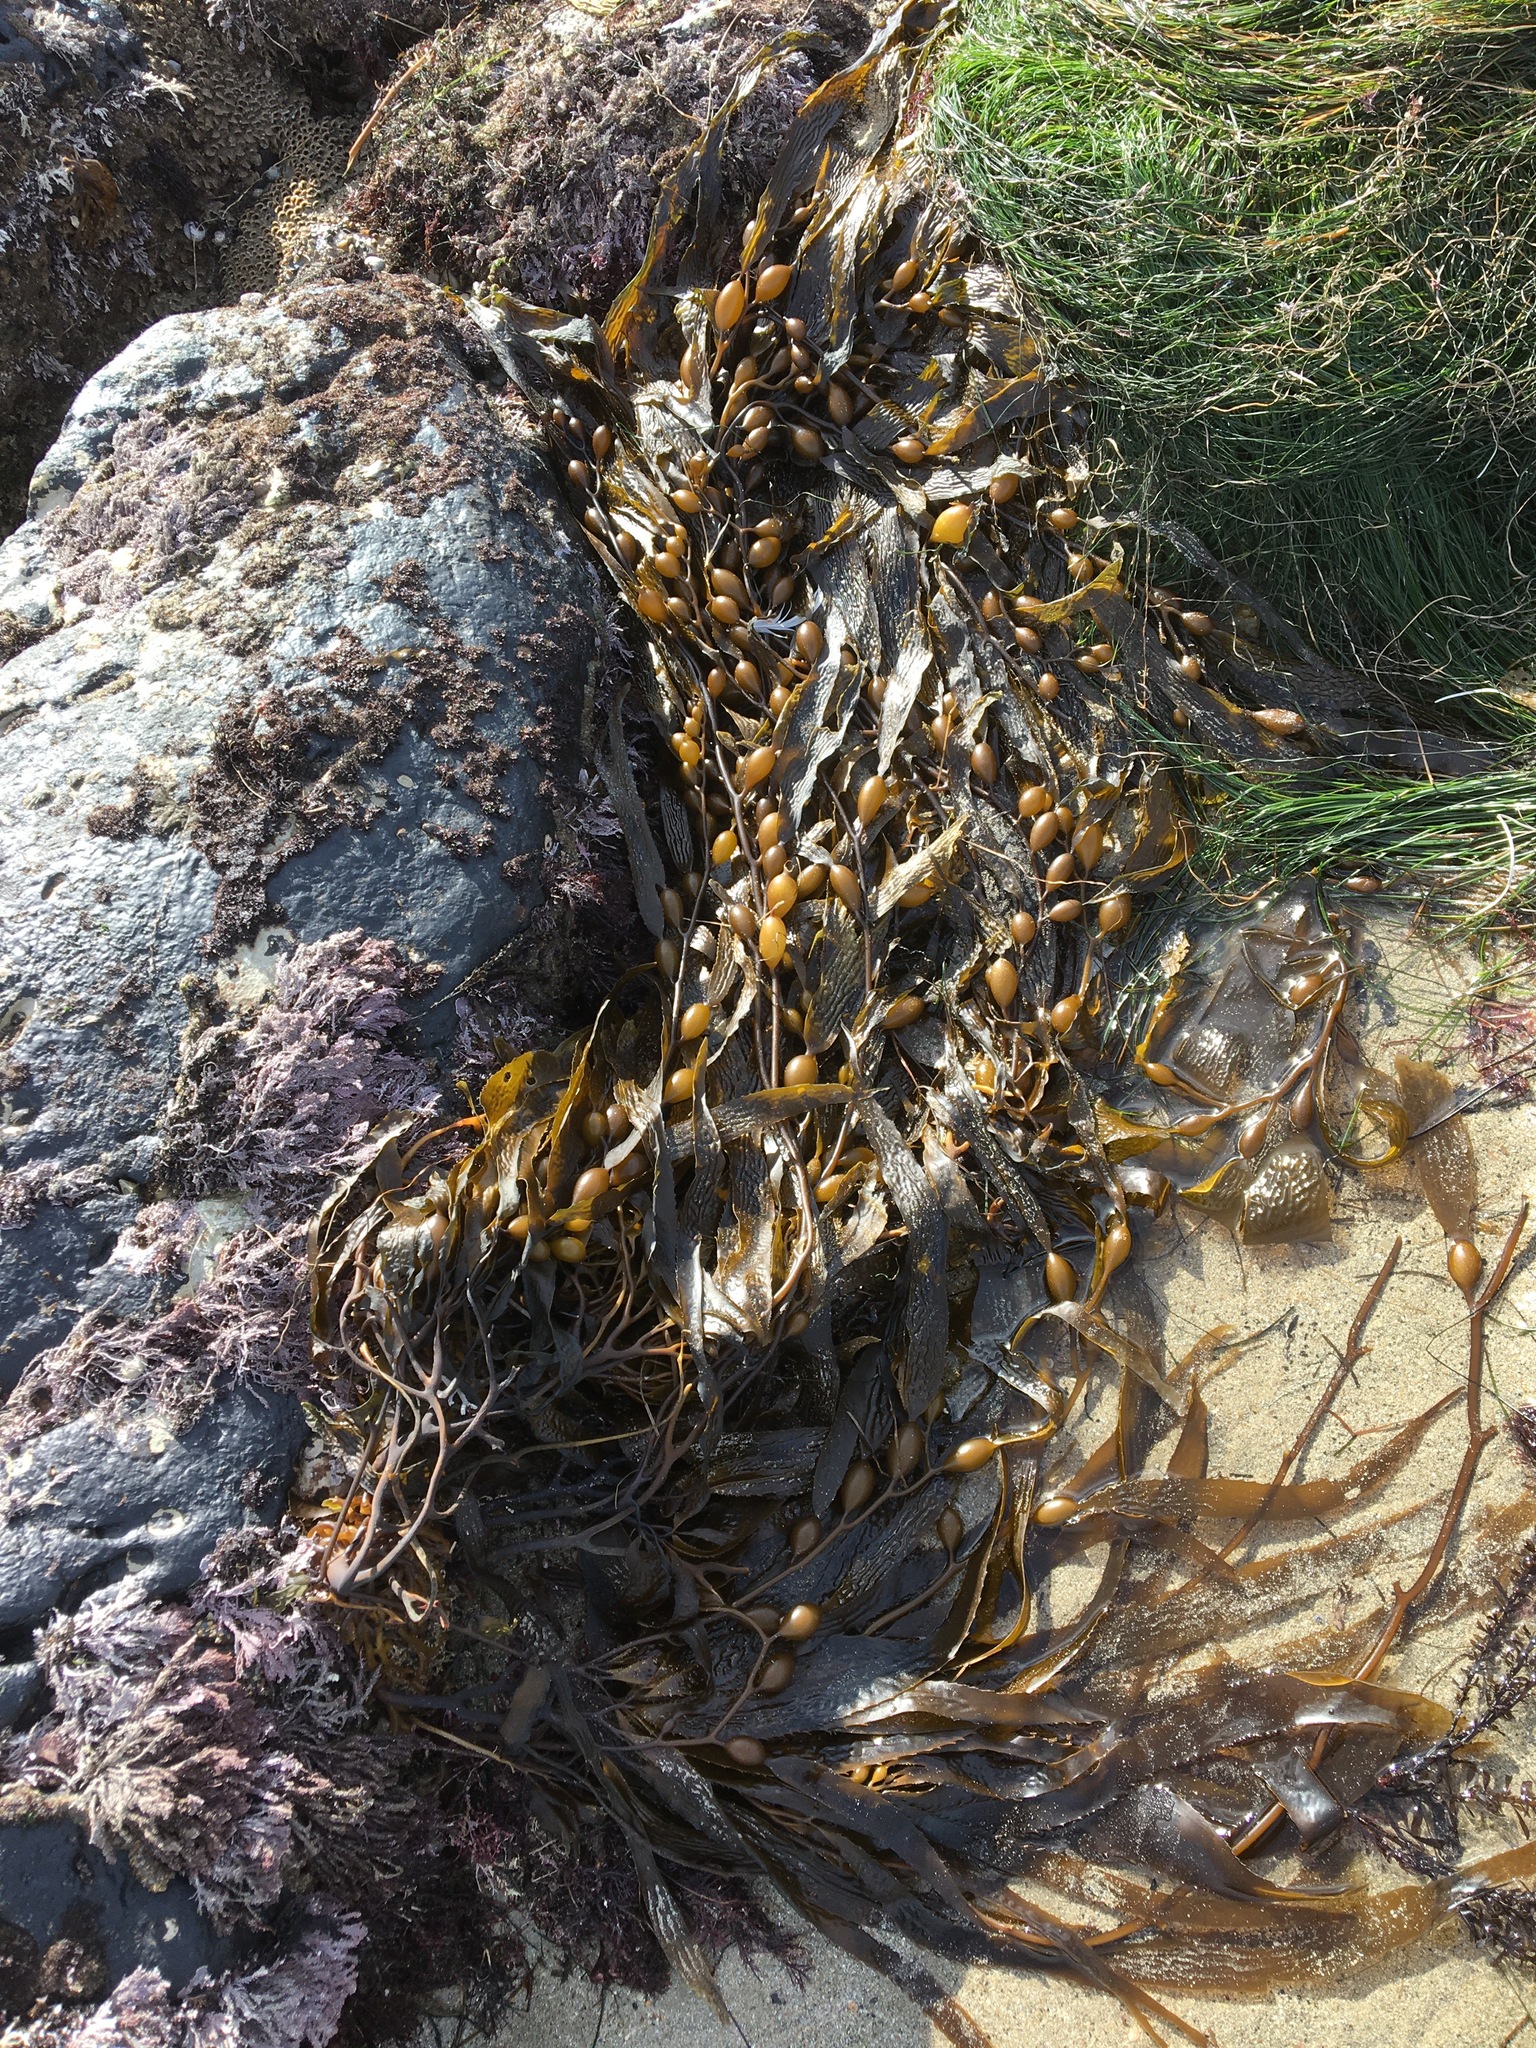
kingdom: Chromista
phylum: Ochrophyta
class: Phaeophyceae
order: Laminariales
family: Laminariaceae
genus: Macrocystis
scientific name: Macrocystis pyrifera
